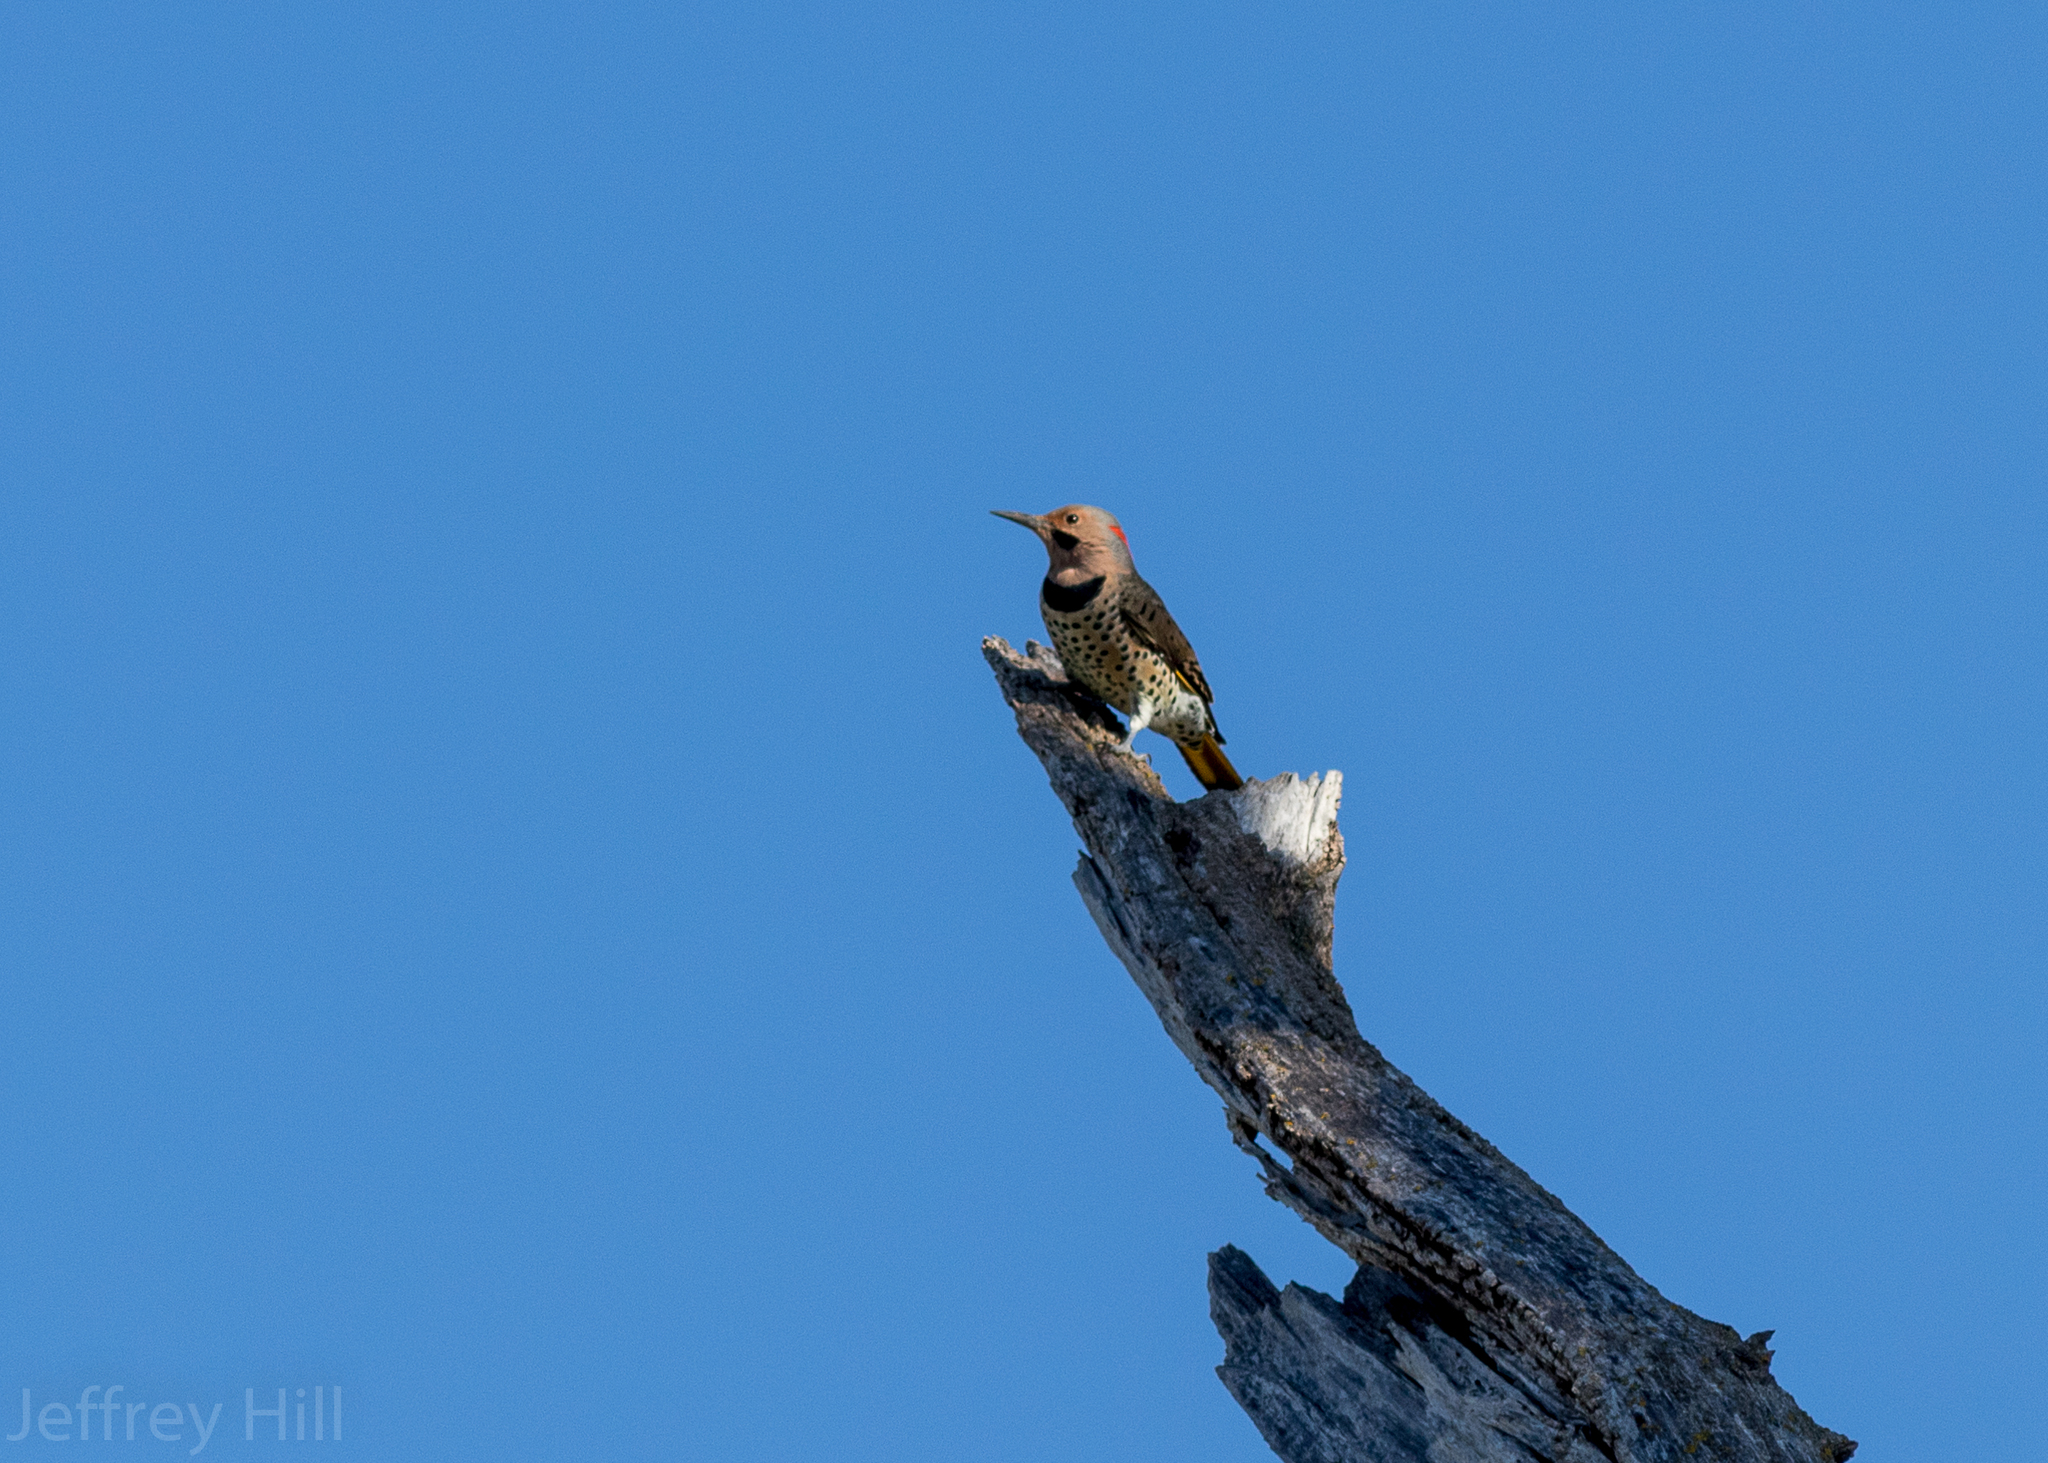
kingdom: Animalia
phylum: Chordata
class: Aves
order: Piciformes
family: Picidae
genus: Colaptes
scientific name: Colaptes auratus
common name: Northern flicker
